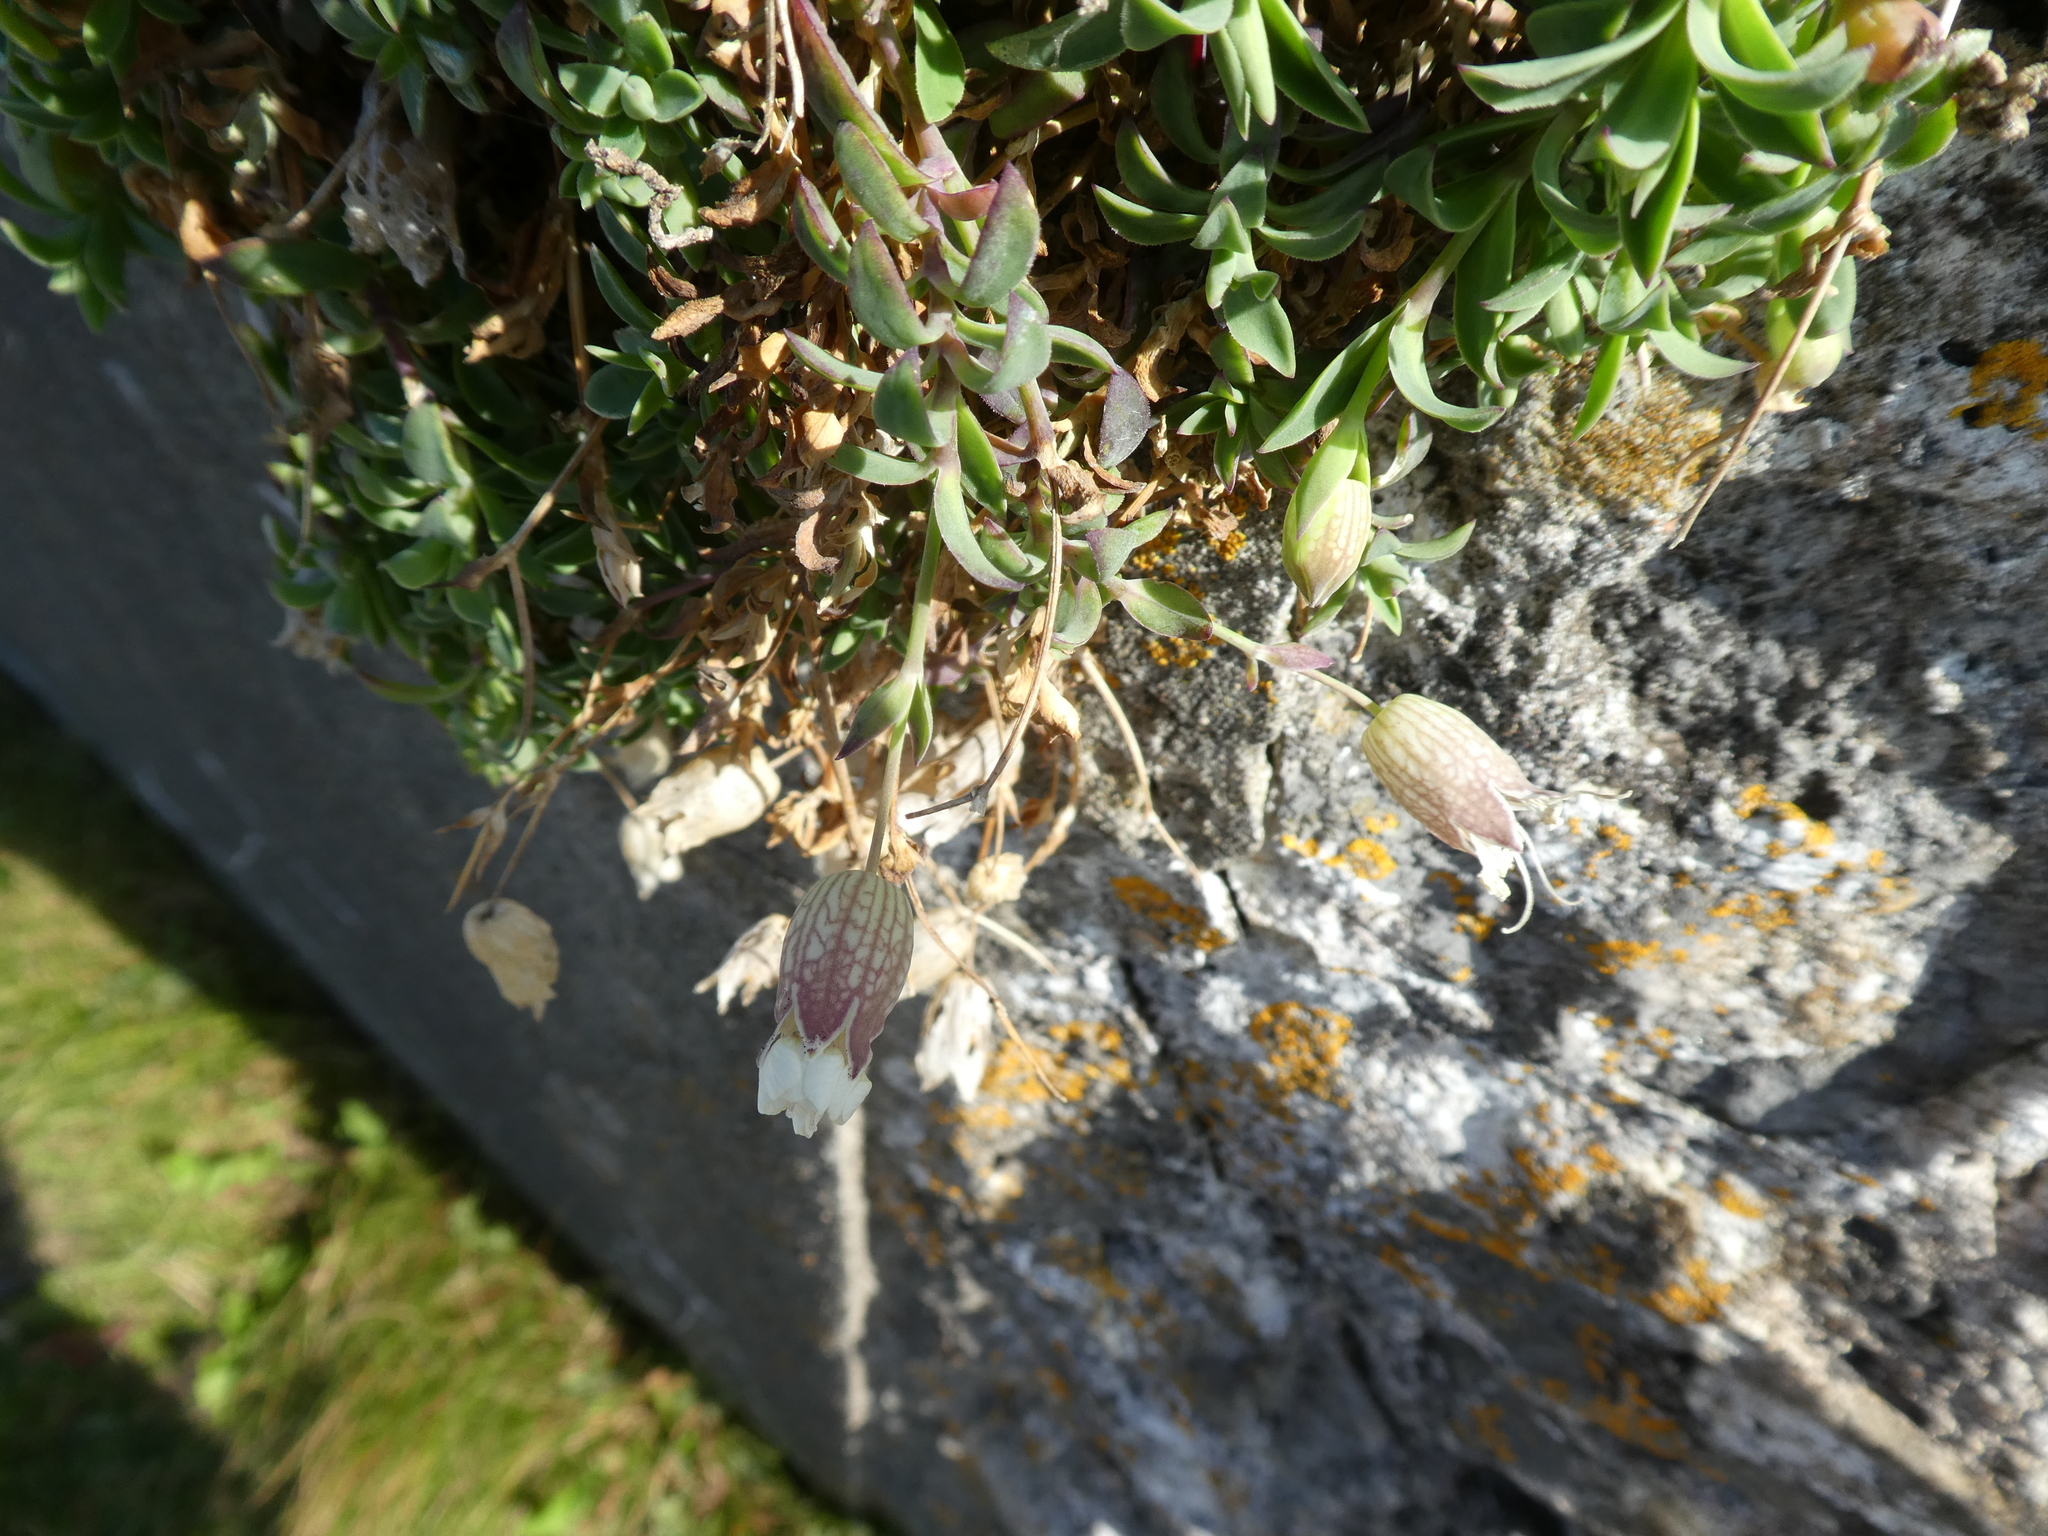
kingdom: Plantae
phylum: Tracheophyta
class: Magnoliopsida
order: Caryophyllales
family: Caryophyllaceae
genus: Silene
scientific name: Silene uniflora
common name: Sea campion
